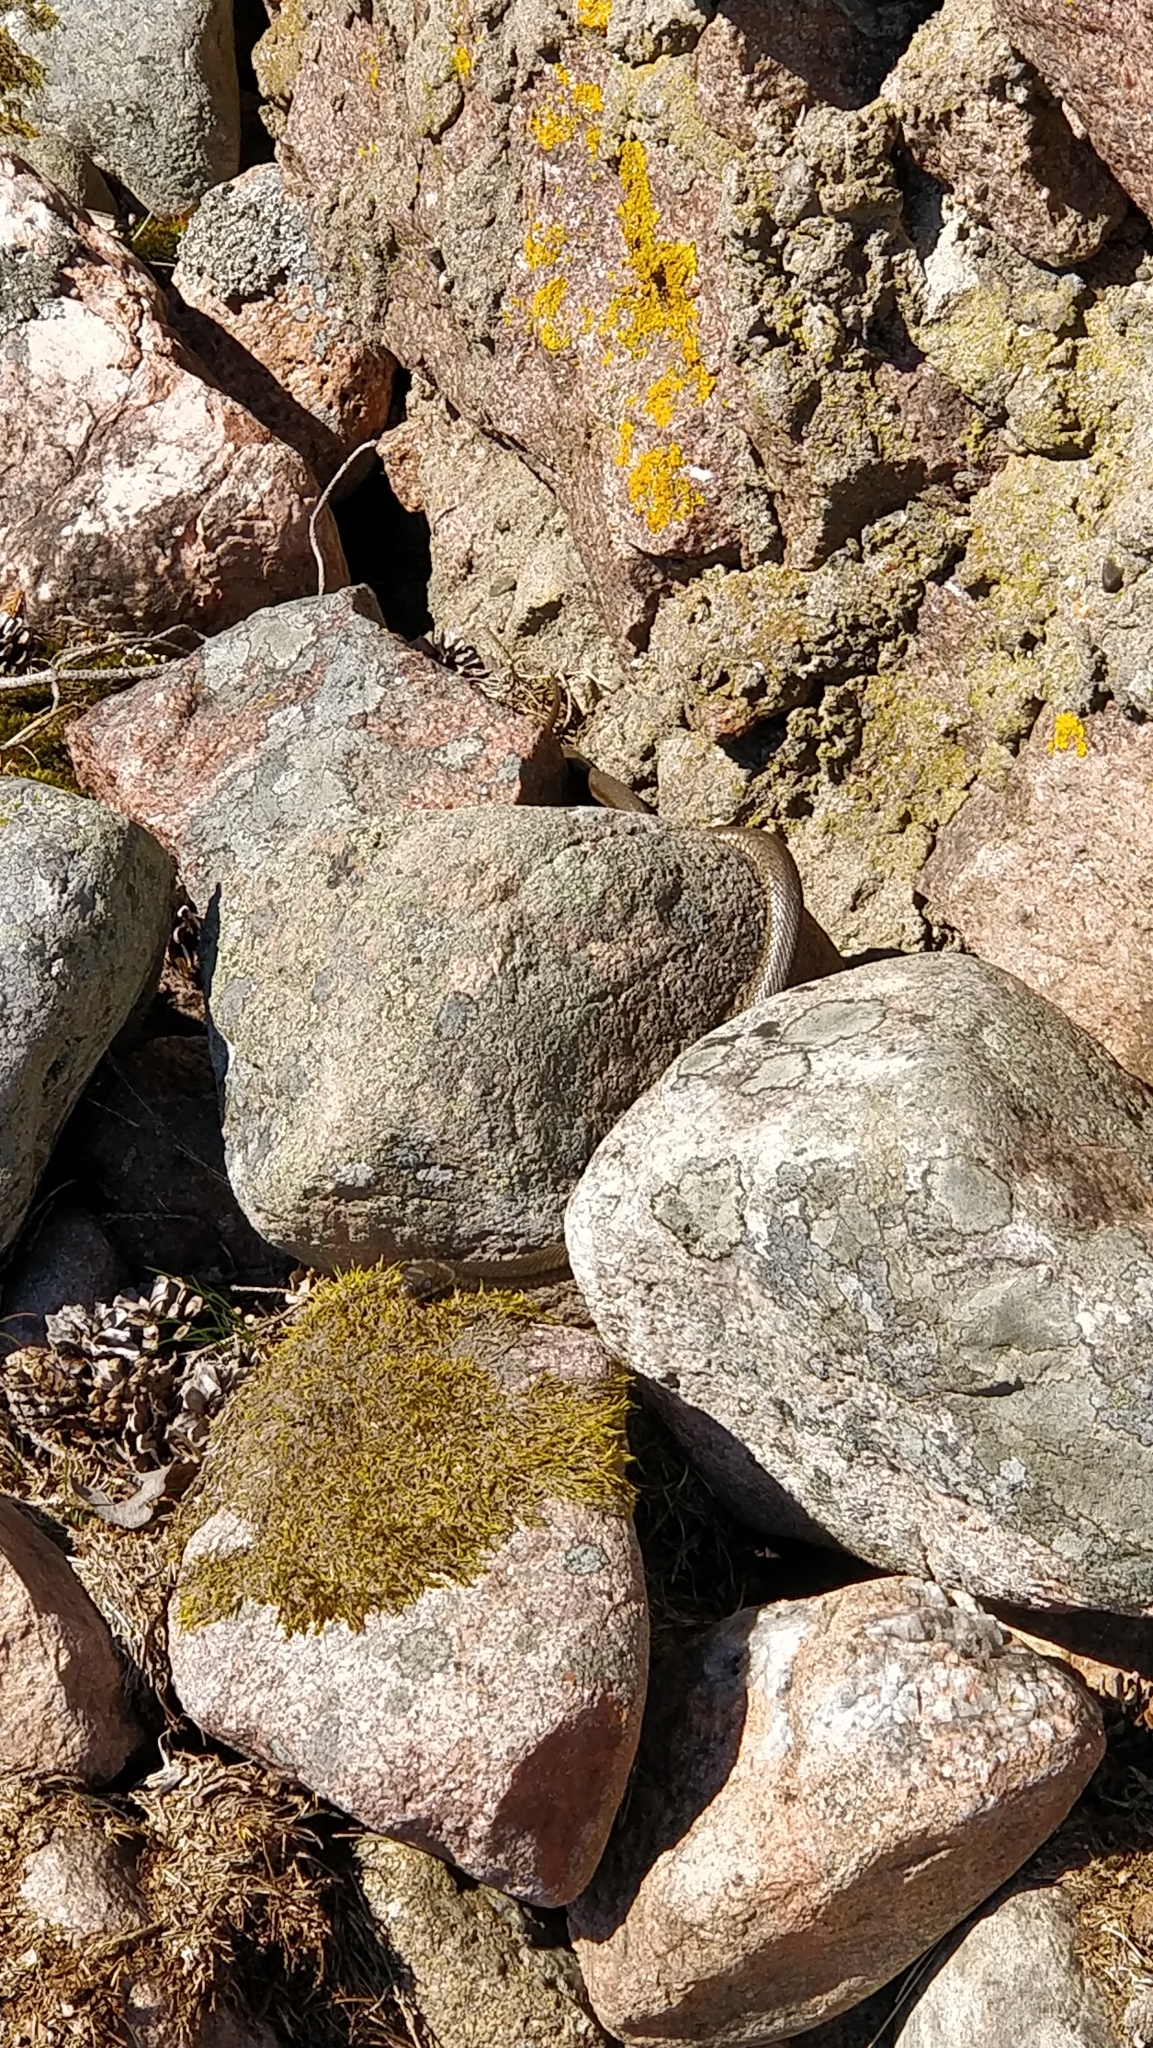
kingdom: Animalia
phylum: Chordata
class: Squamata
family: Colubridae
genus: Natrix
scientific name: Natrix natrix
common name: Grass snake
